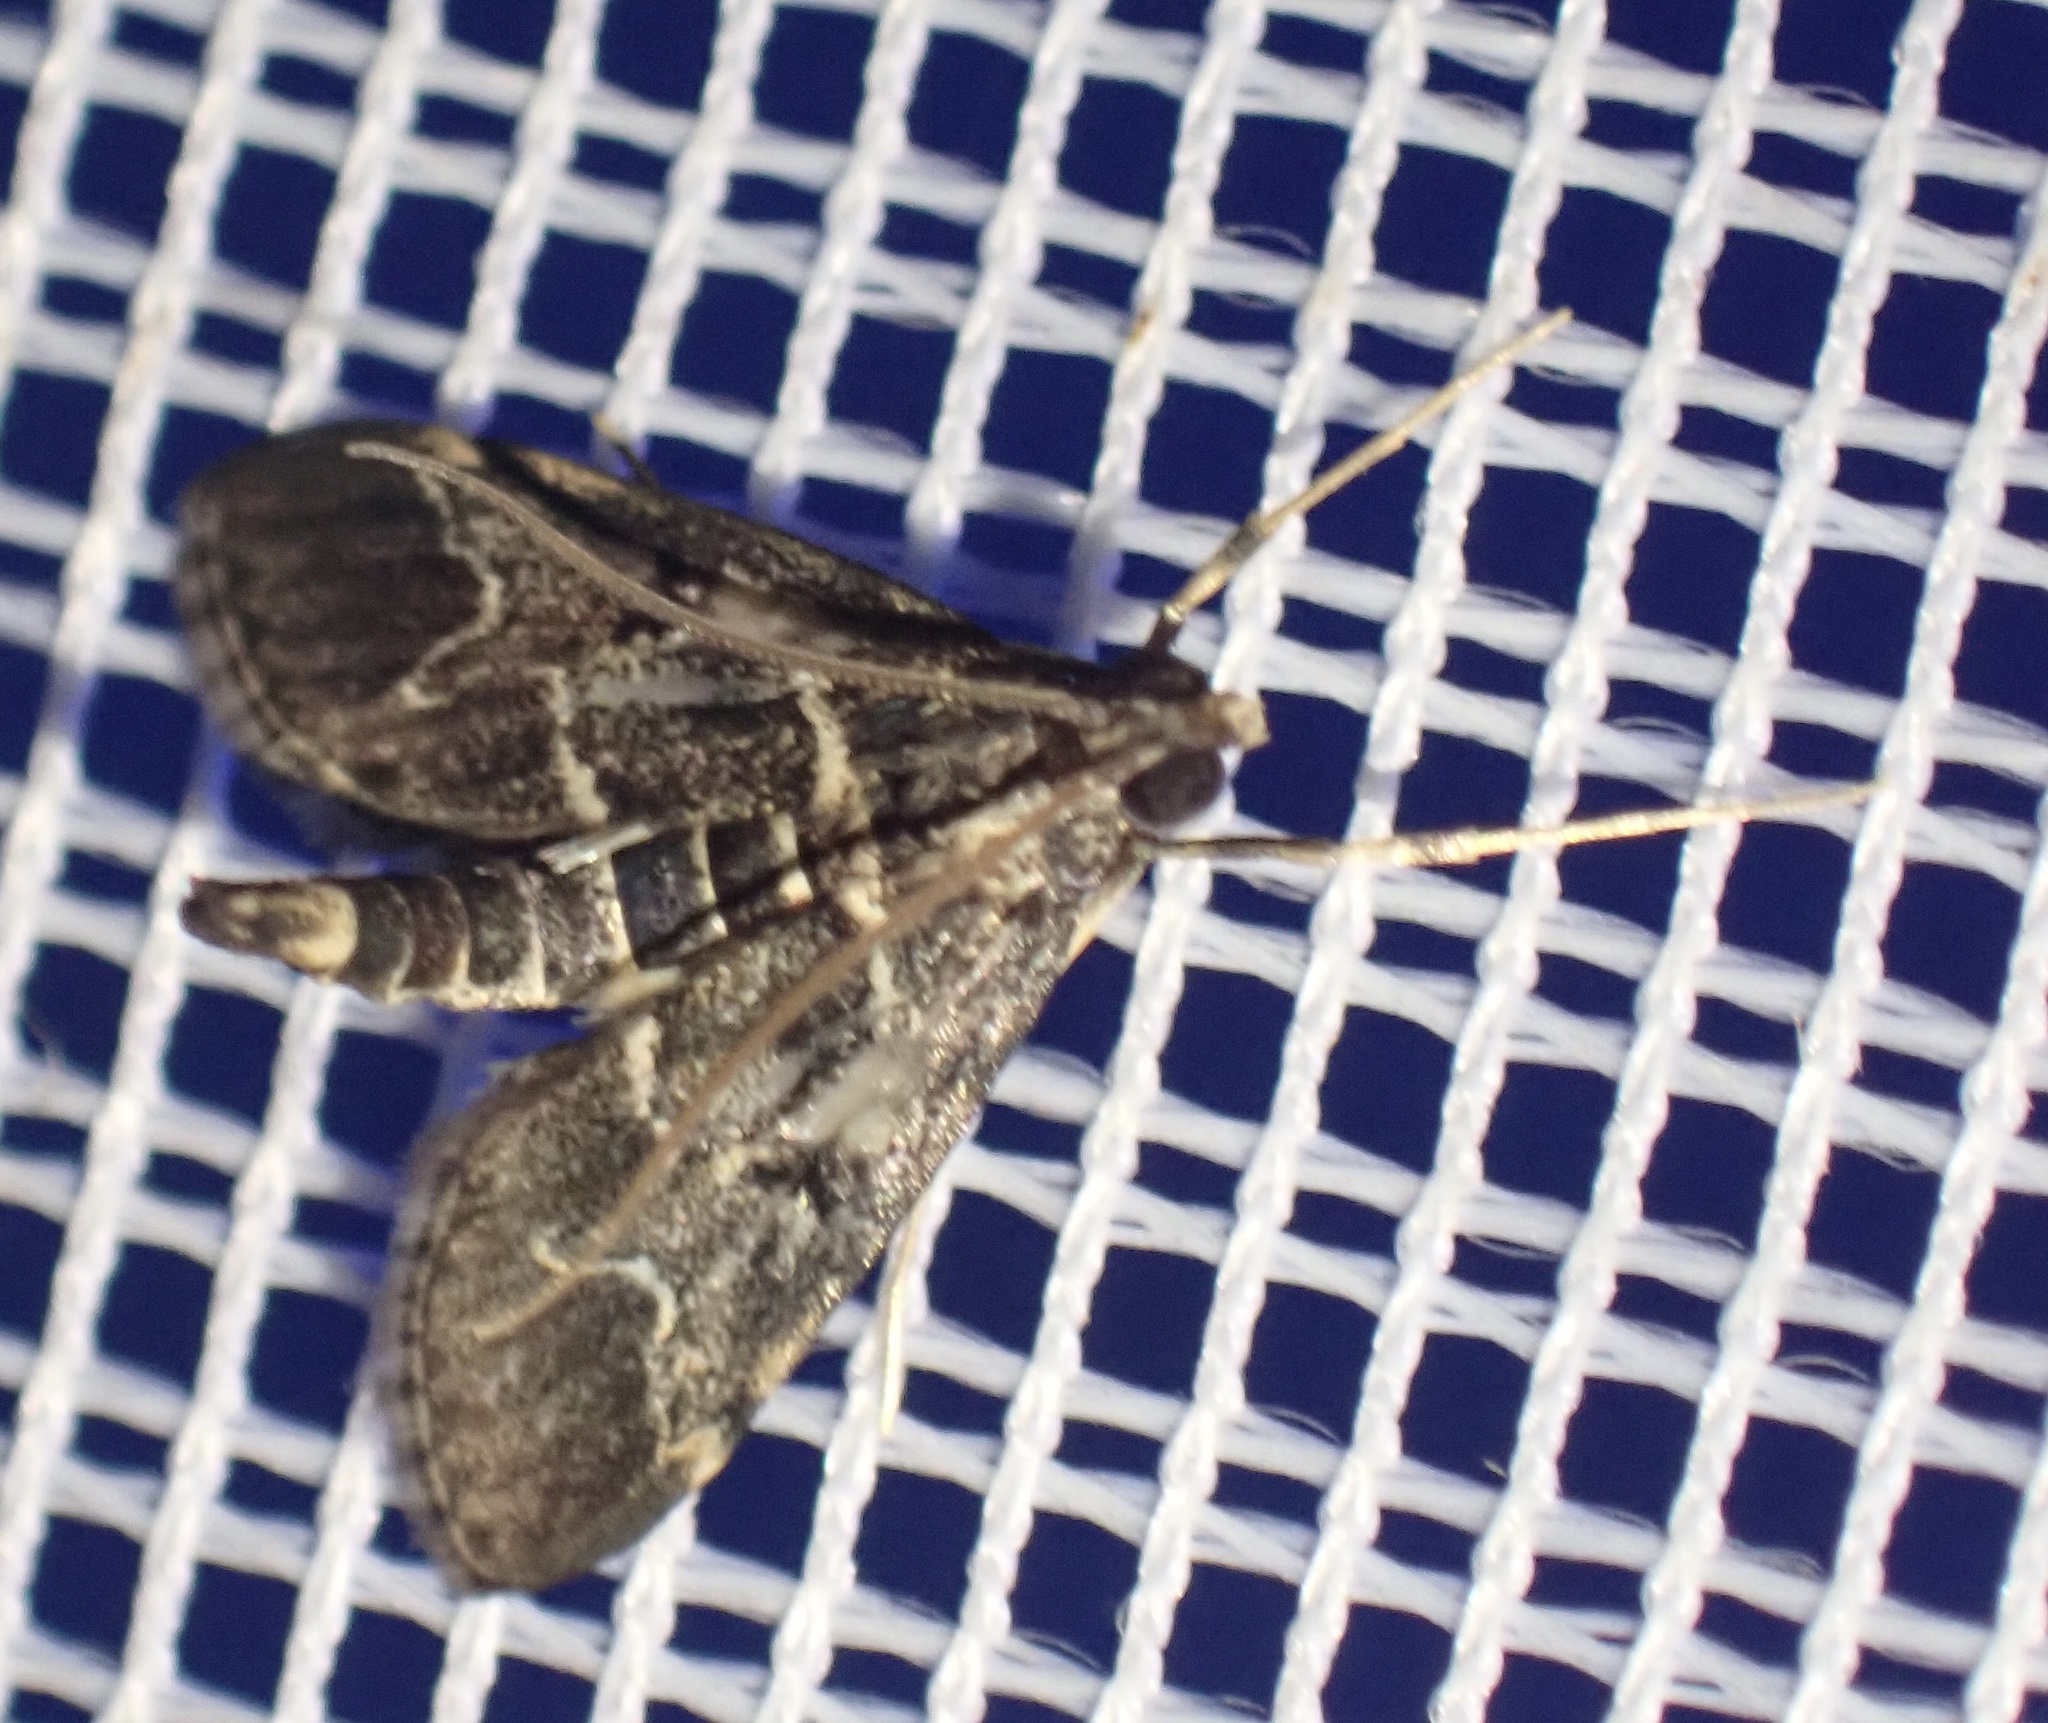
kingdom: Animalia
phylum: Arthropoda
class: Insecta
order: Lepidoptera
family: Crambidae
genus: Duponchelia
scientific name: Duponchelia fovealis
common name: Crambid moth
